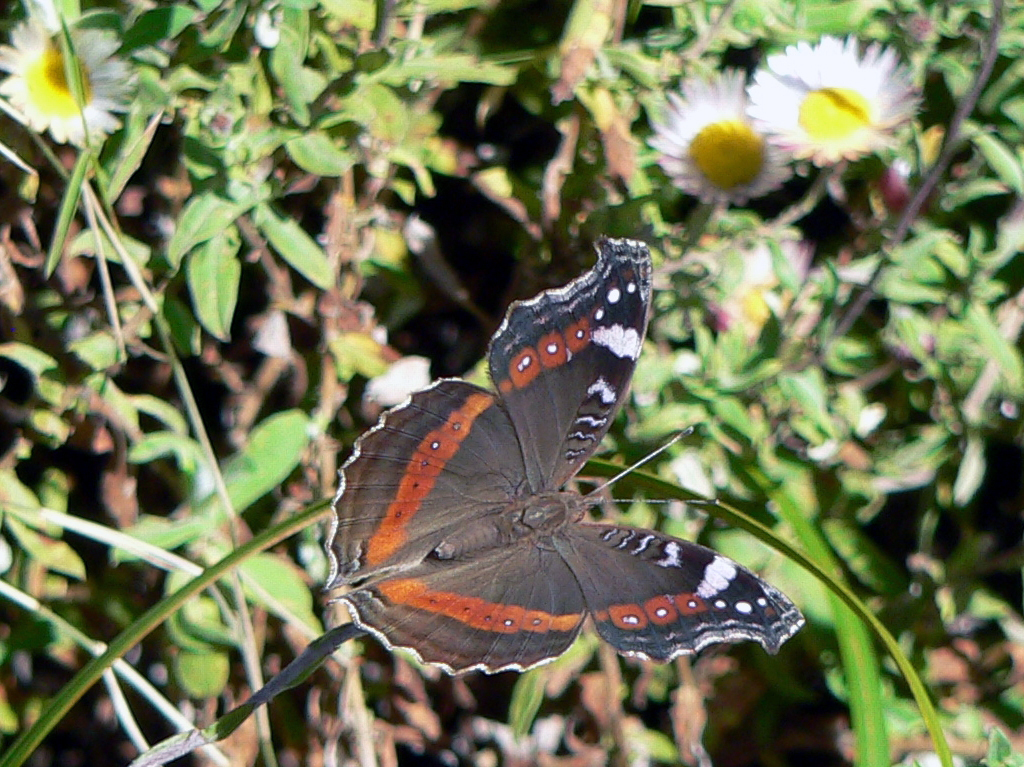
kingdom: Animalia
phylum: Arthropoda
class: Insecta
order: Lepidoptera
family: Nymphalidae
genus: Junonia
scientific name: Junonia archesia
